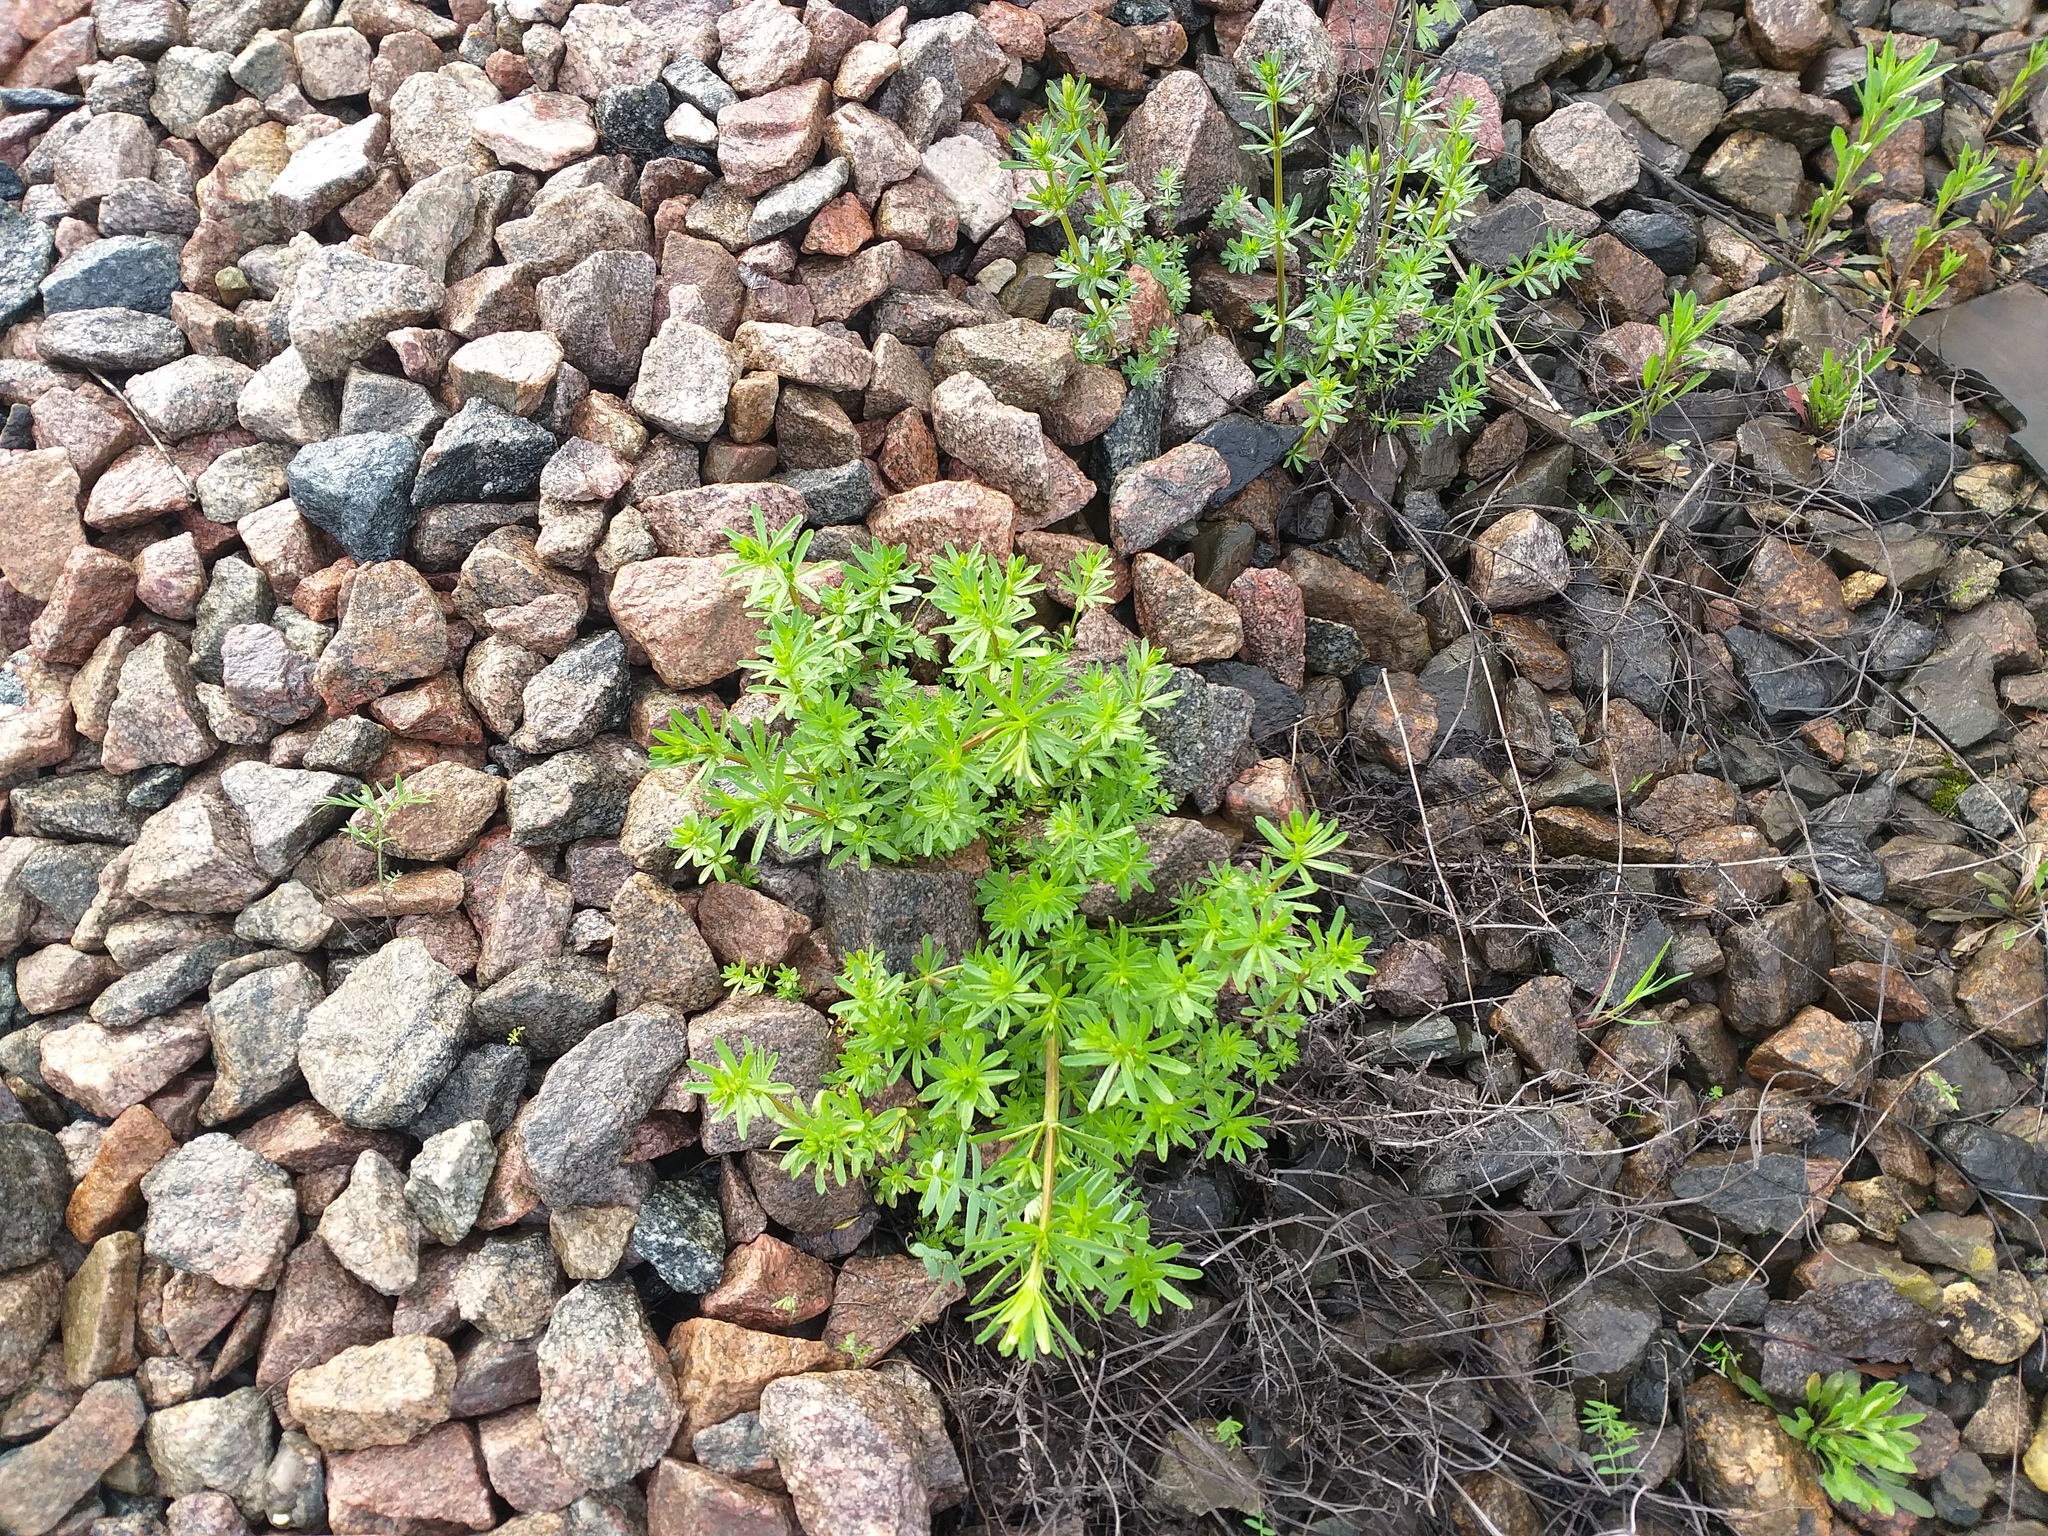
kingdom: Plantae
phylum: Tracheophyta
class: Magnoliopsida
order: Gentianales
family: Rubiaceae
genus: Galium
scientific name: Galium mollugo
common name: Hedge bedstraw
